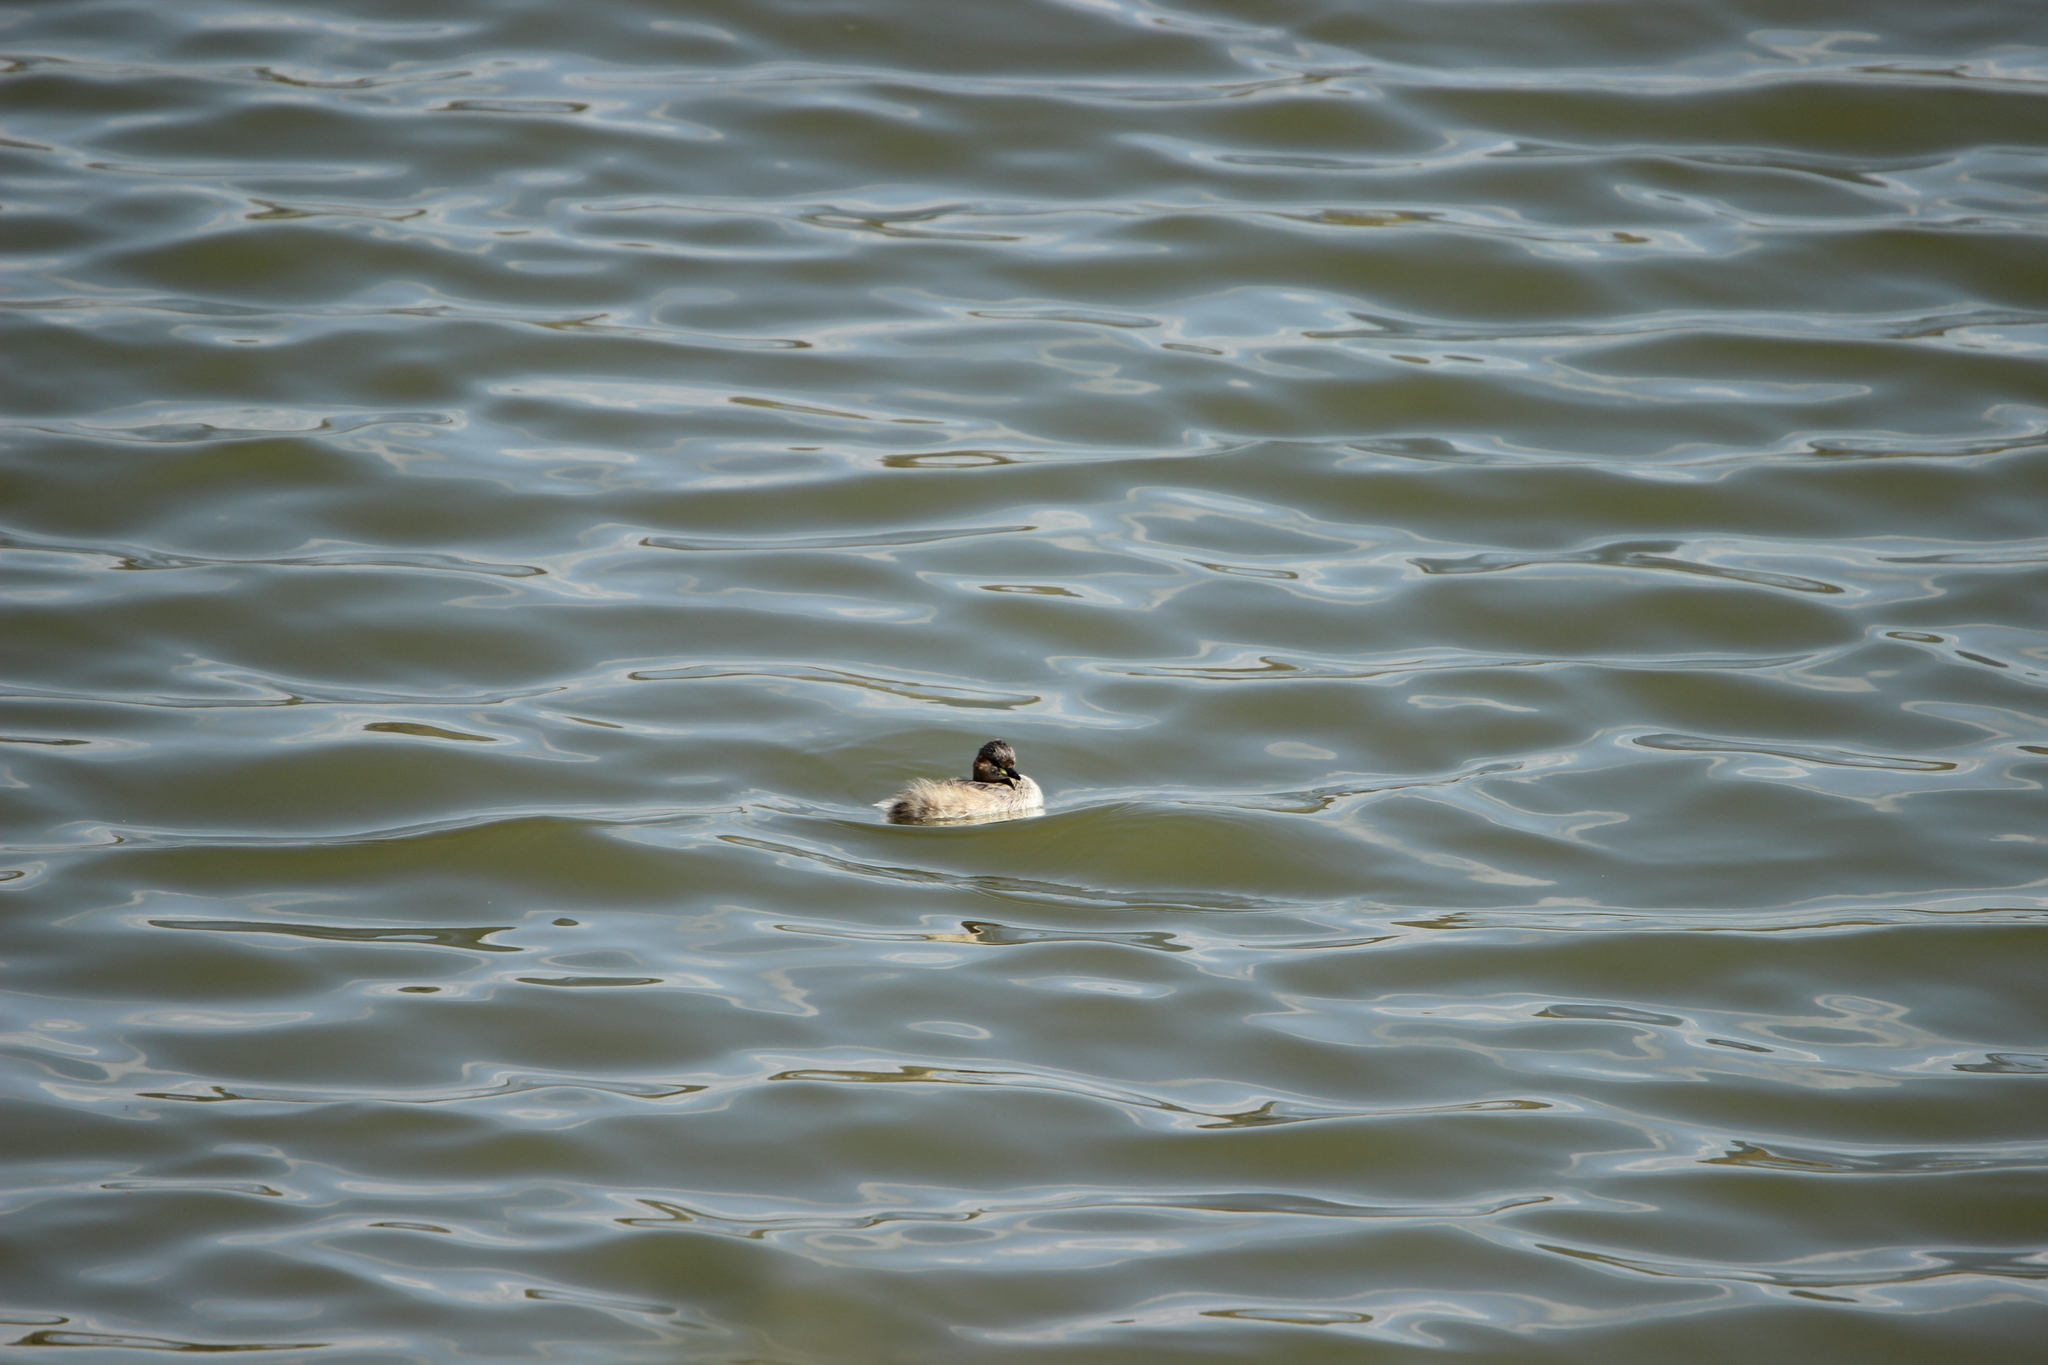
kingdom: Animalia
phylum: Chordata
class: Aves
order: Podicipediformes
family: Podicipedidae
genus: Tachybaptus
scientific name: Tachybaptus ruficollis
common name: Little grebe
